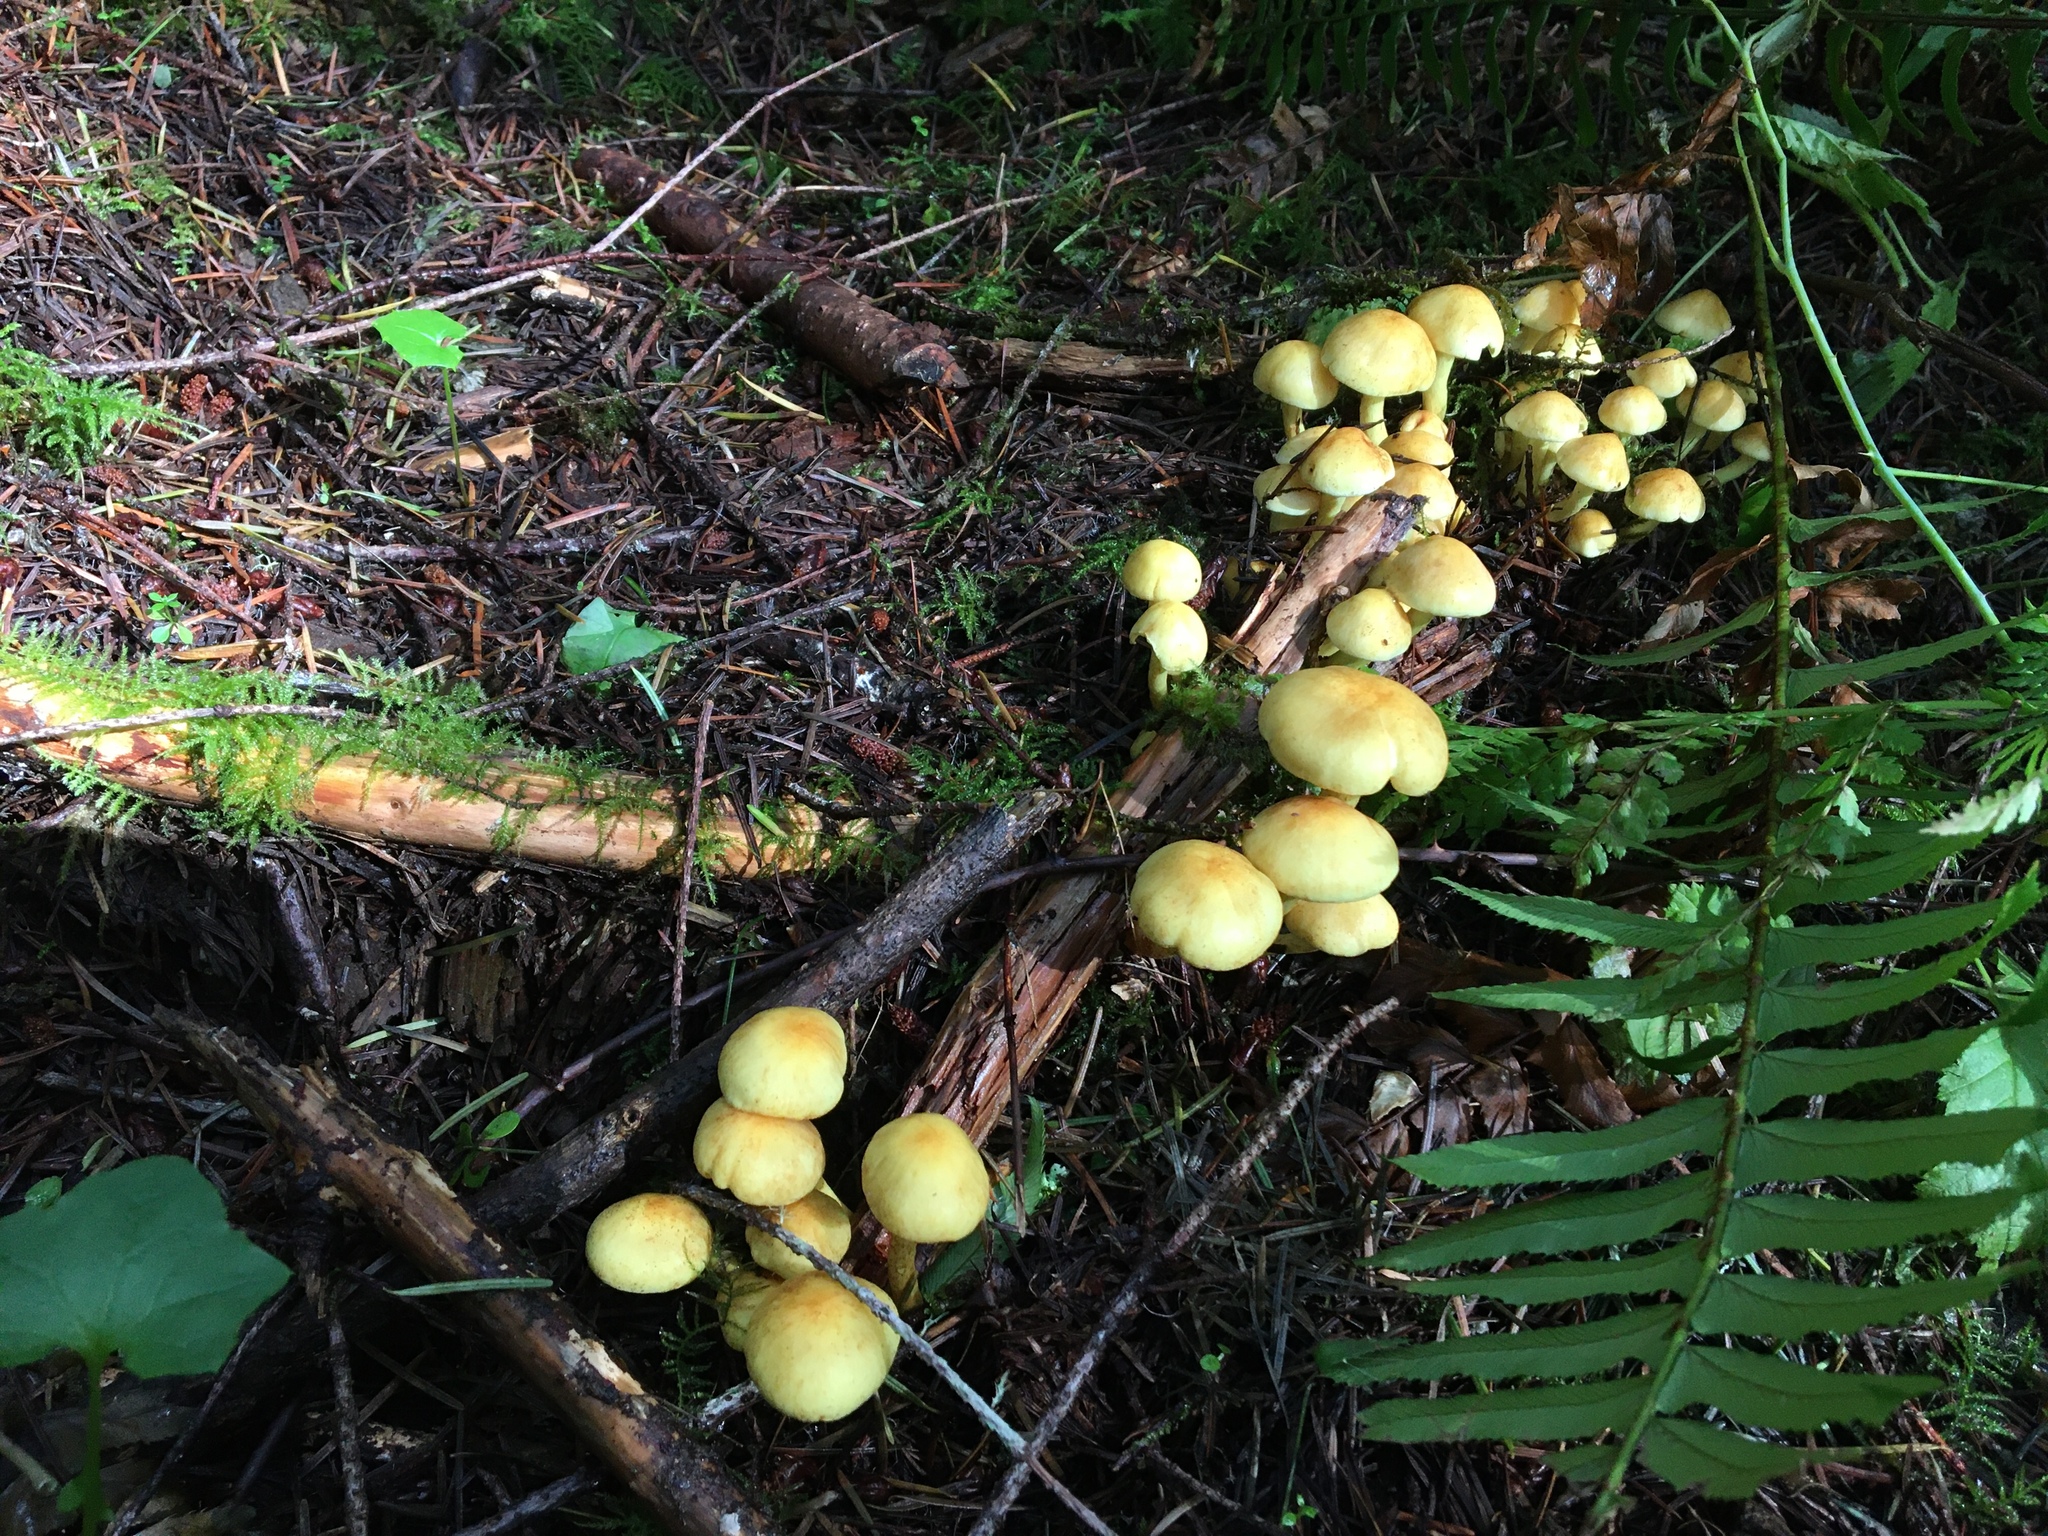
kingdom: Fungi
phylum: Basidiomycota
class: Agaricomycetes
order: Agaricales
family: Strophariaceae
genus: Hypholoma
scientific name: Hypholoma fasciculare
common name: Sulphur tuft
